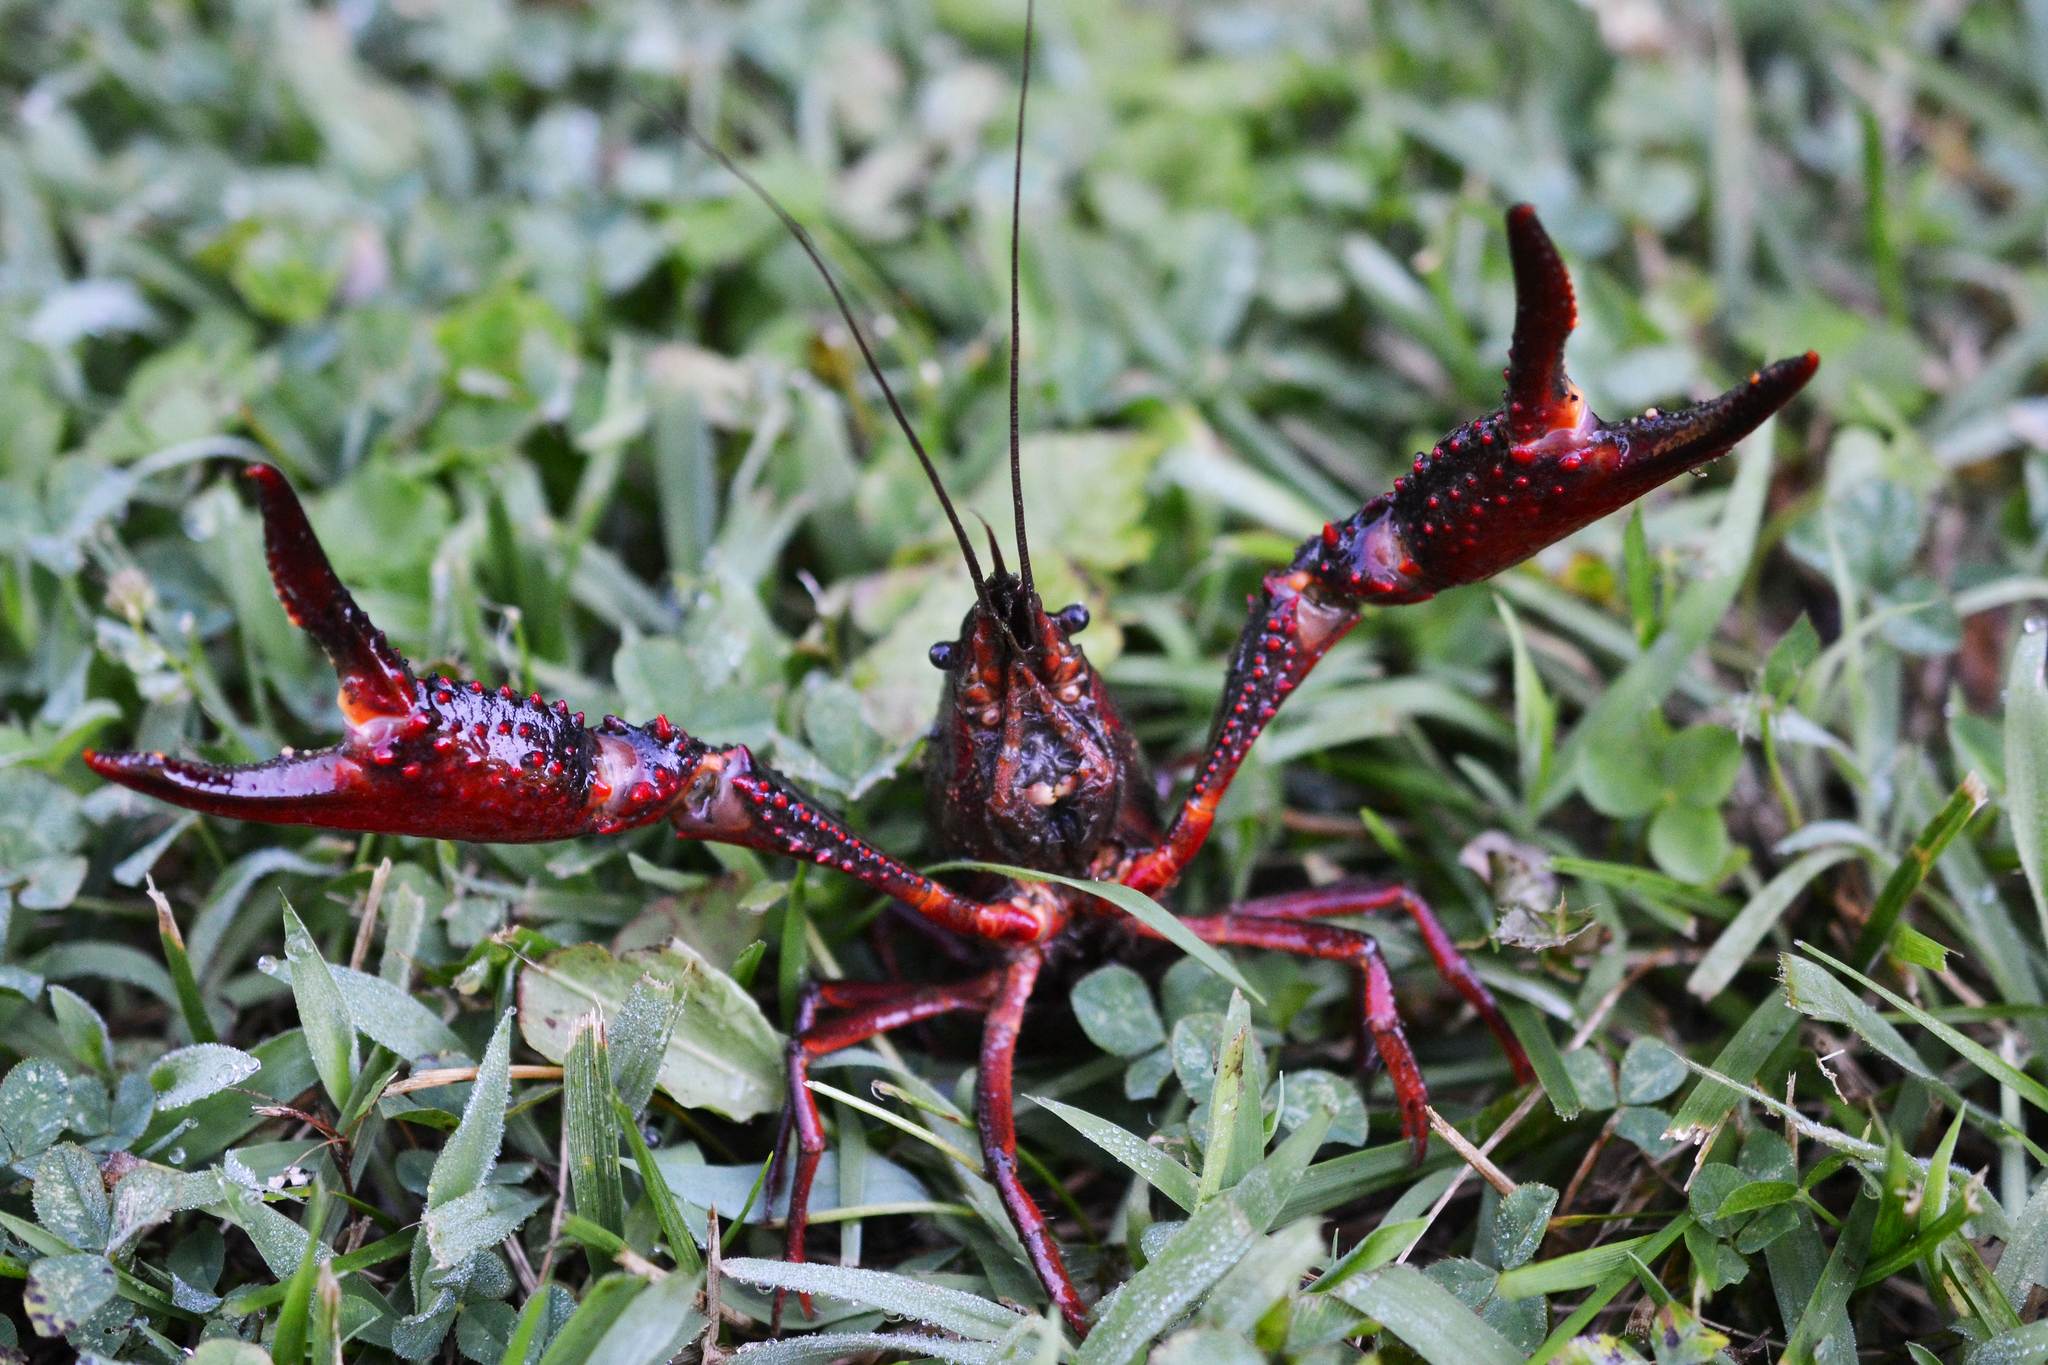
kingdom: Animalia
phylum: Arthropoda
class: Malacostraca
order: Decapoda
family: Cambaridae
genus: Procambarus
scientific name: Procambarus clarkii
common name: Red swamp crayfish
